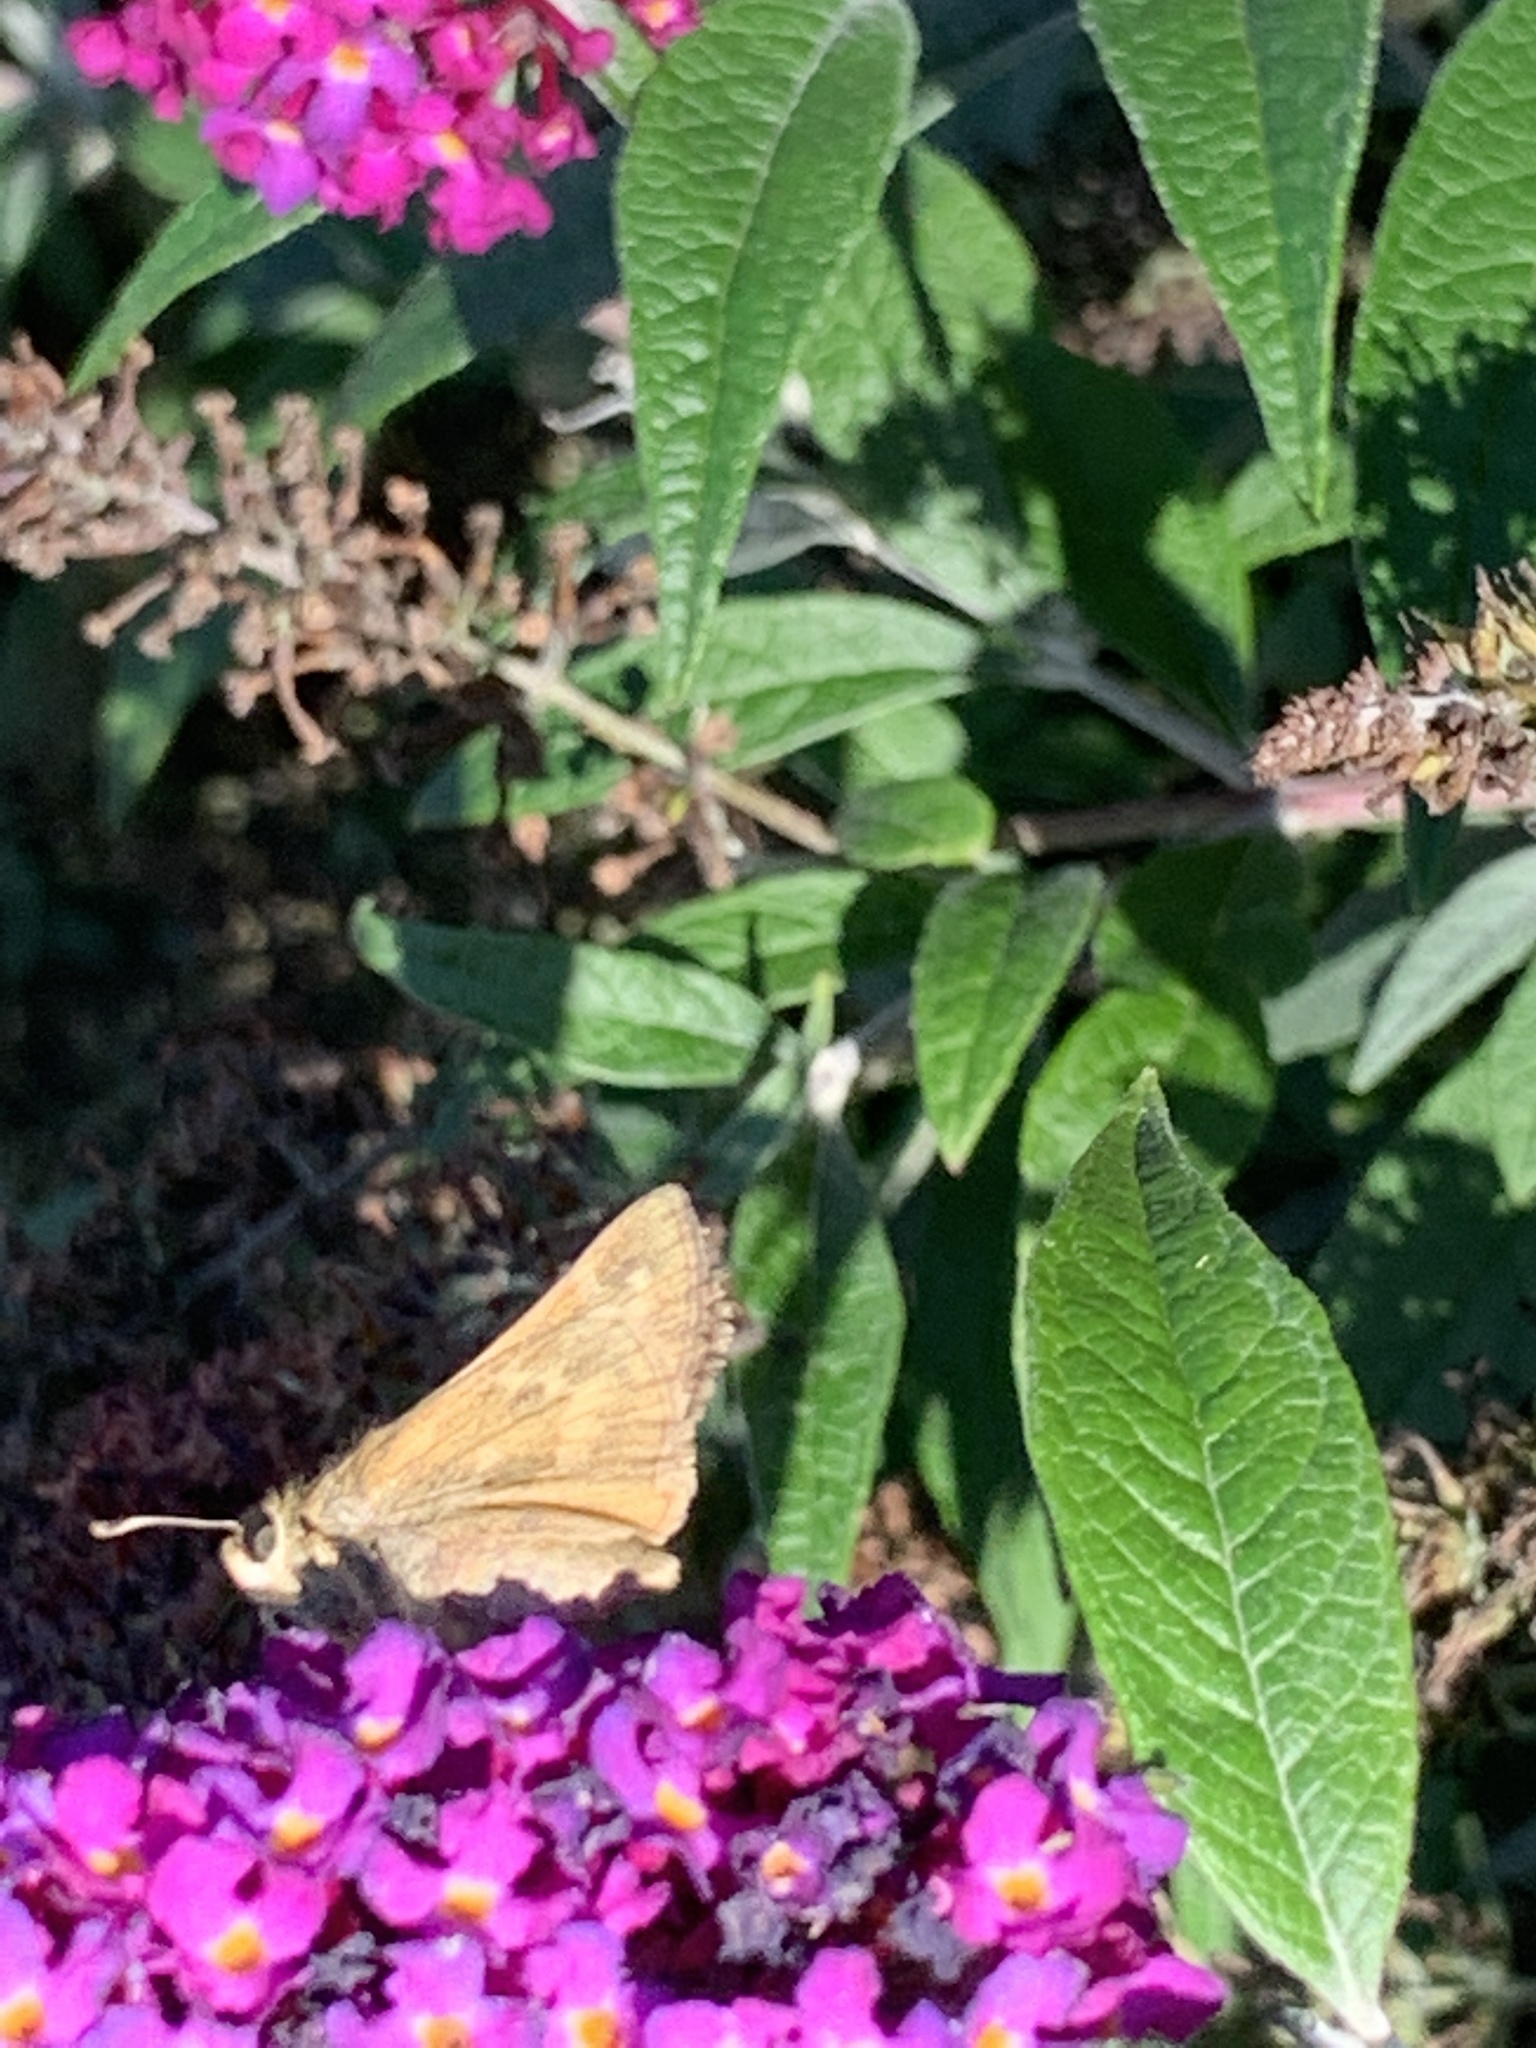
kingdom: Animalia
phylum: Arthropoda
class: Insecta
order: Lepidoptera
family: Hesperiidae
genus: Atalopedes
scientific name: Atalopedes
